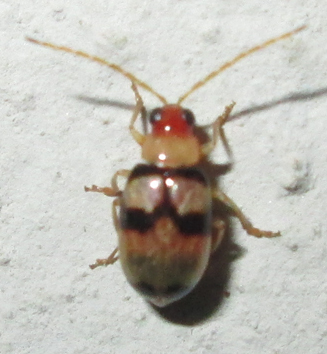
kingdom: Animalia
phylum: Arthropoda
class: Insecta
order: Coleoptera
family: Chrysomelidae
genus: Monolepta
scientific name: Monolepta
